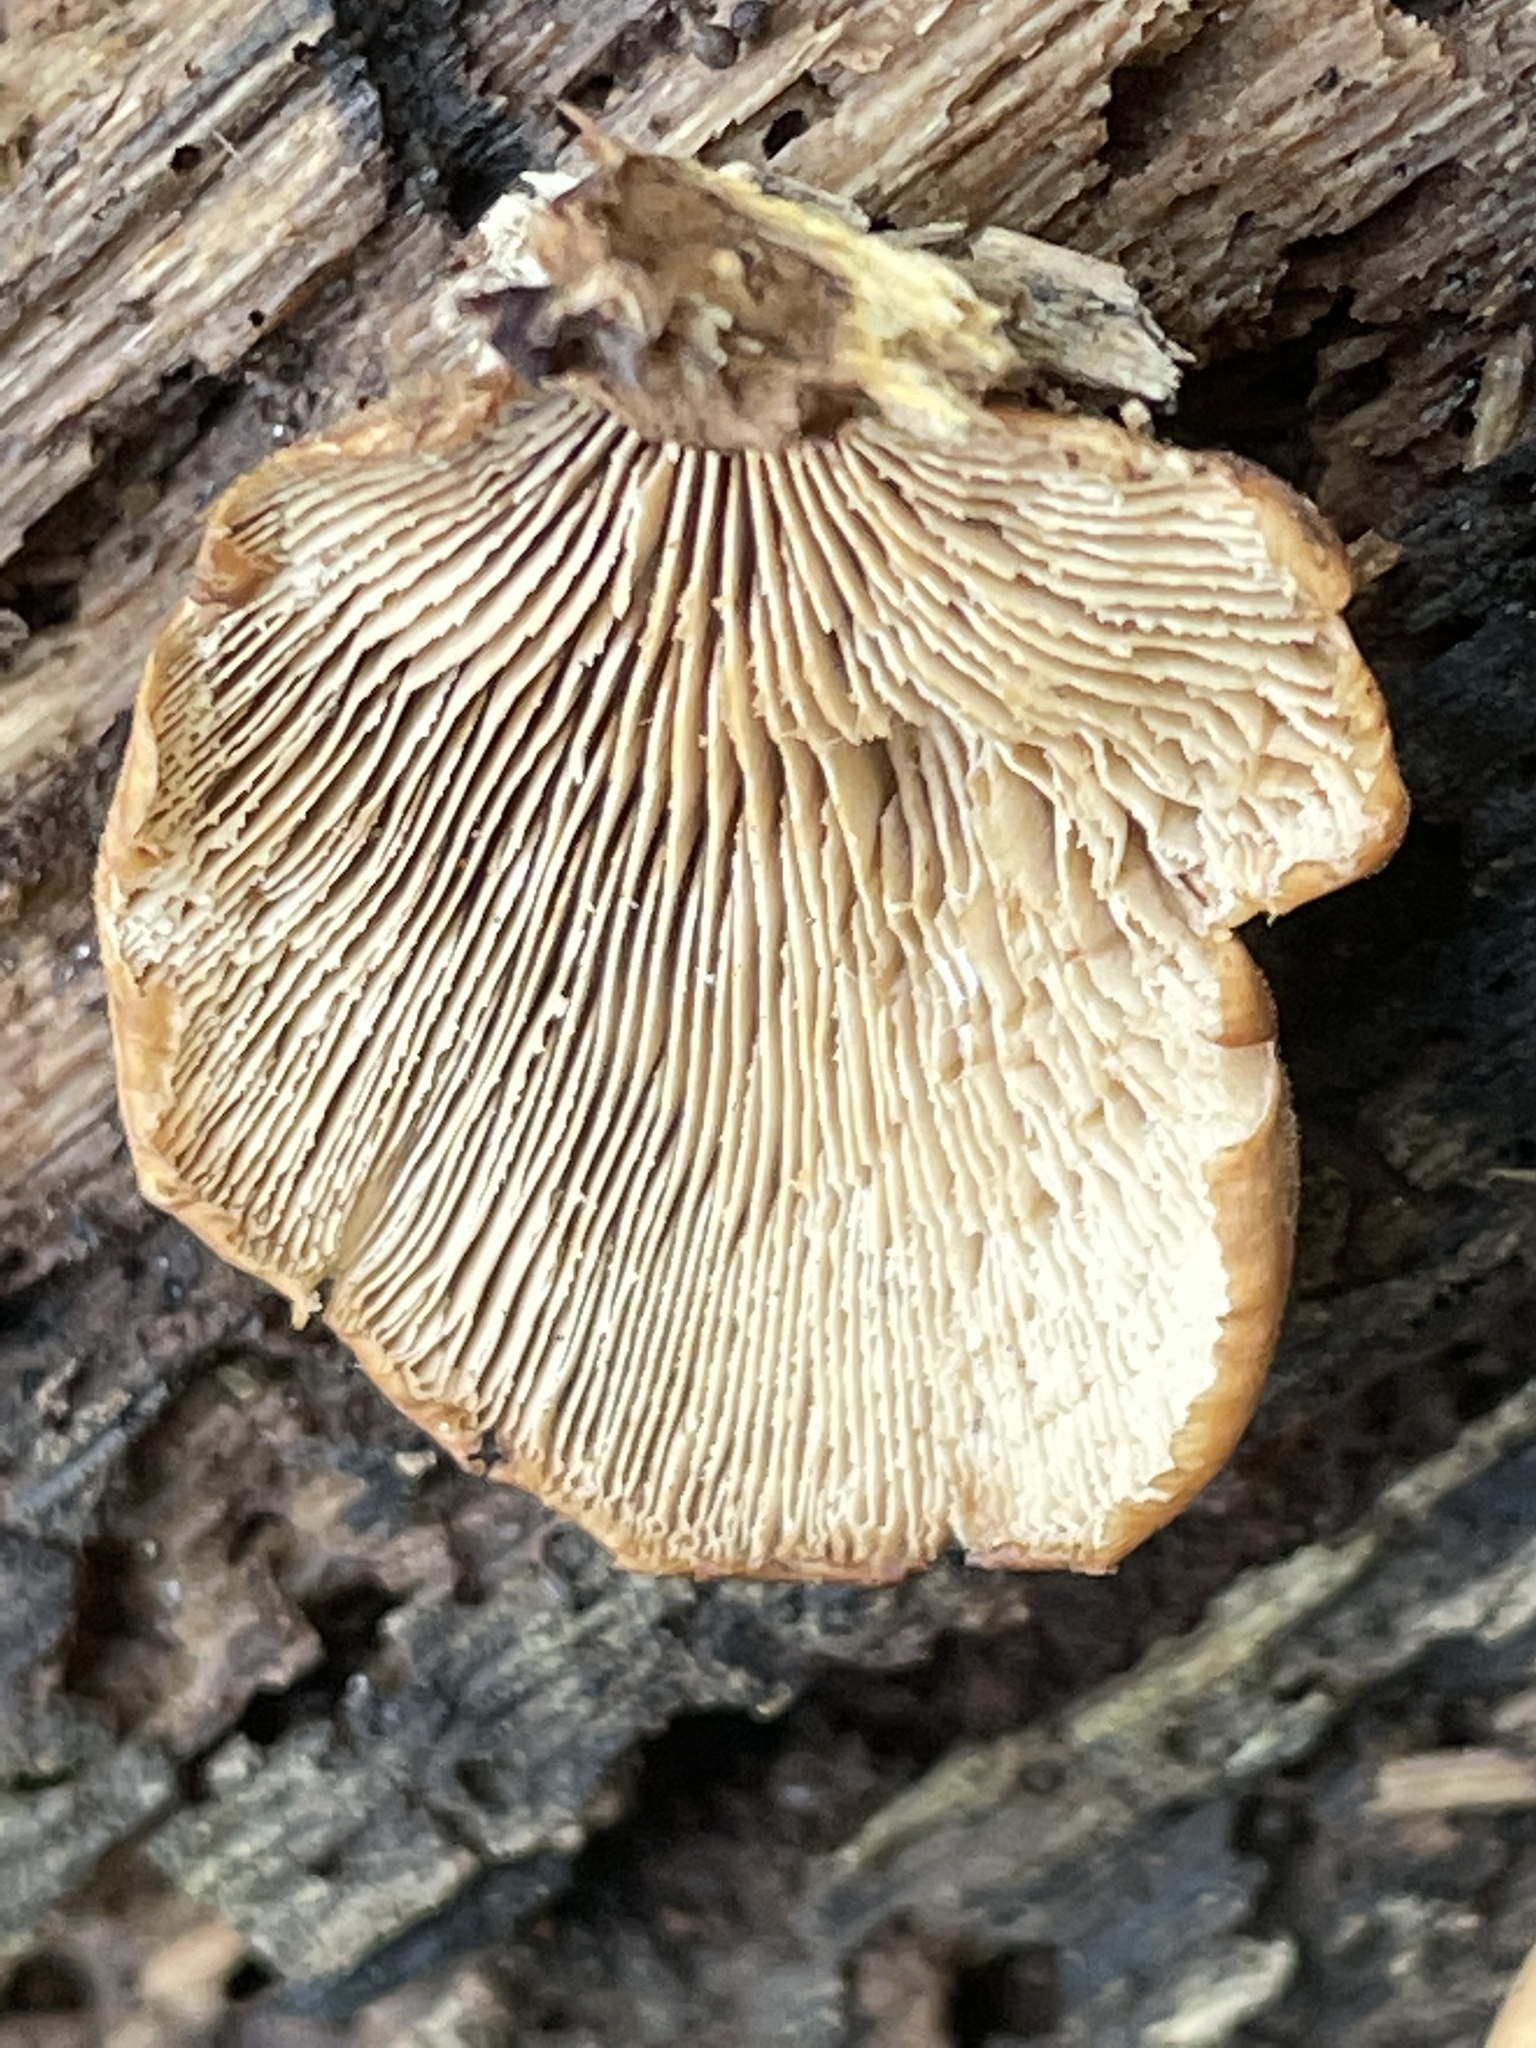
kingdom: Fungi
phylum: Basidiomycota
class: Agaricomycetes
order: Russulales
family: Auriscalpiaceae
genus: Lentinellus
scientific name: Lentinellus ursinus
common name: Bear lentinus
